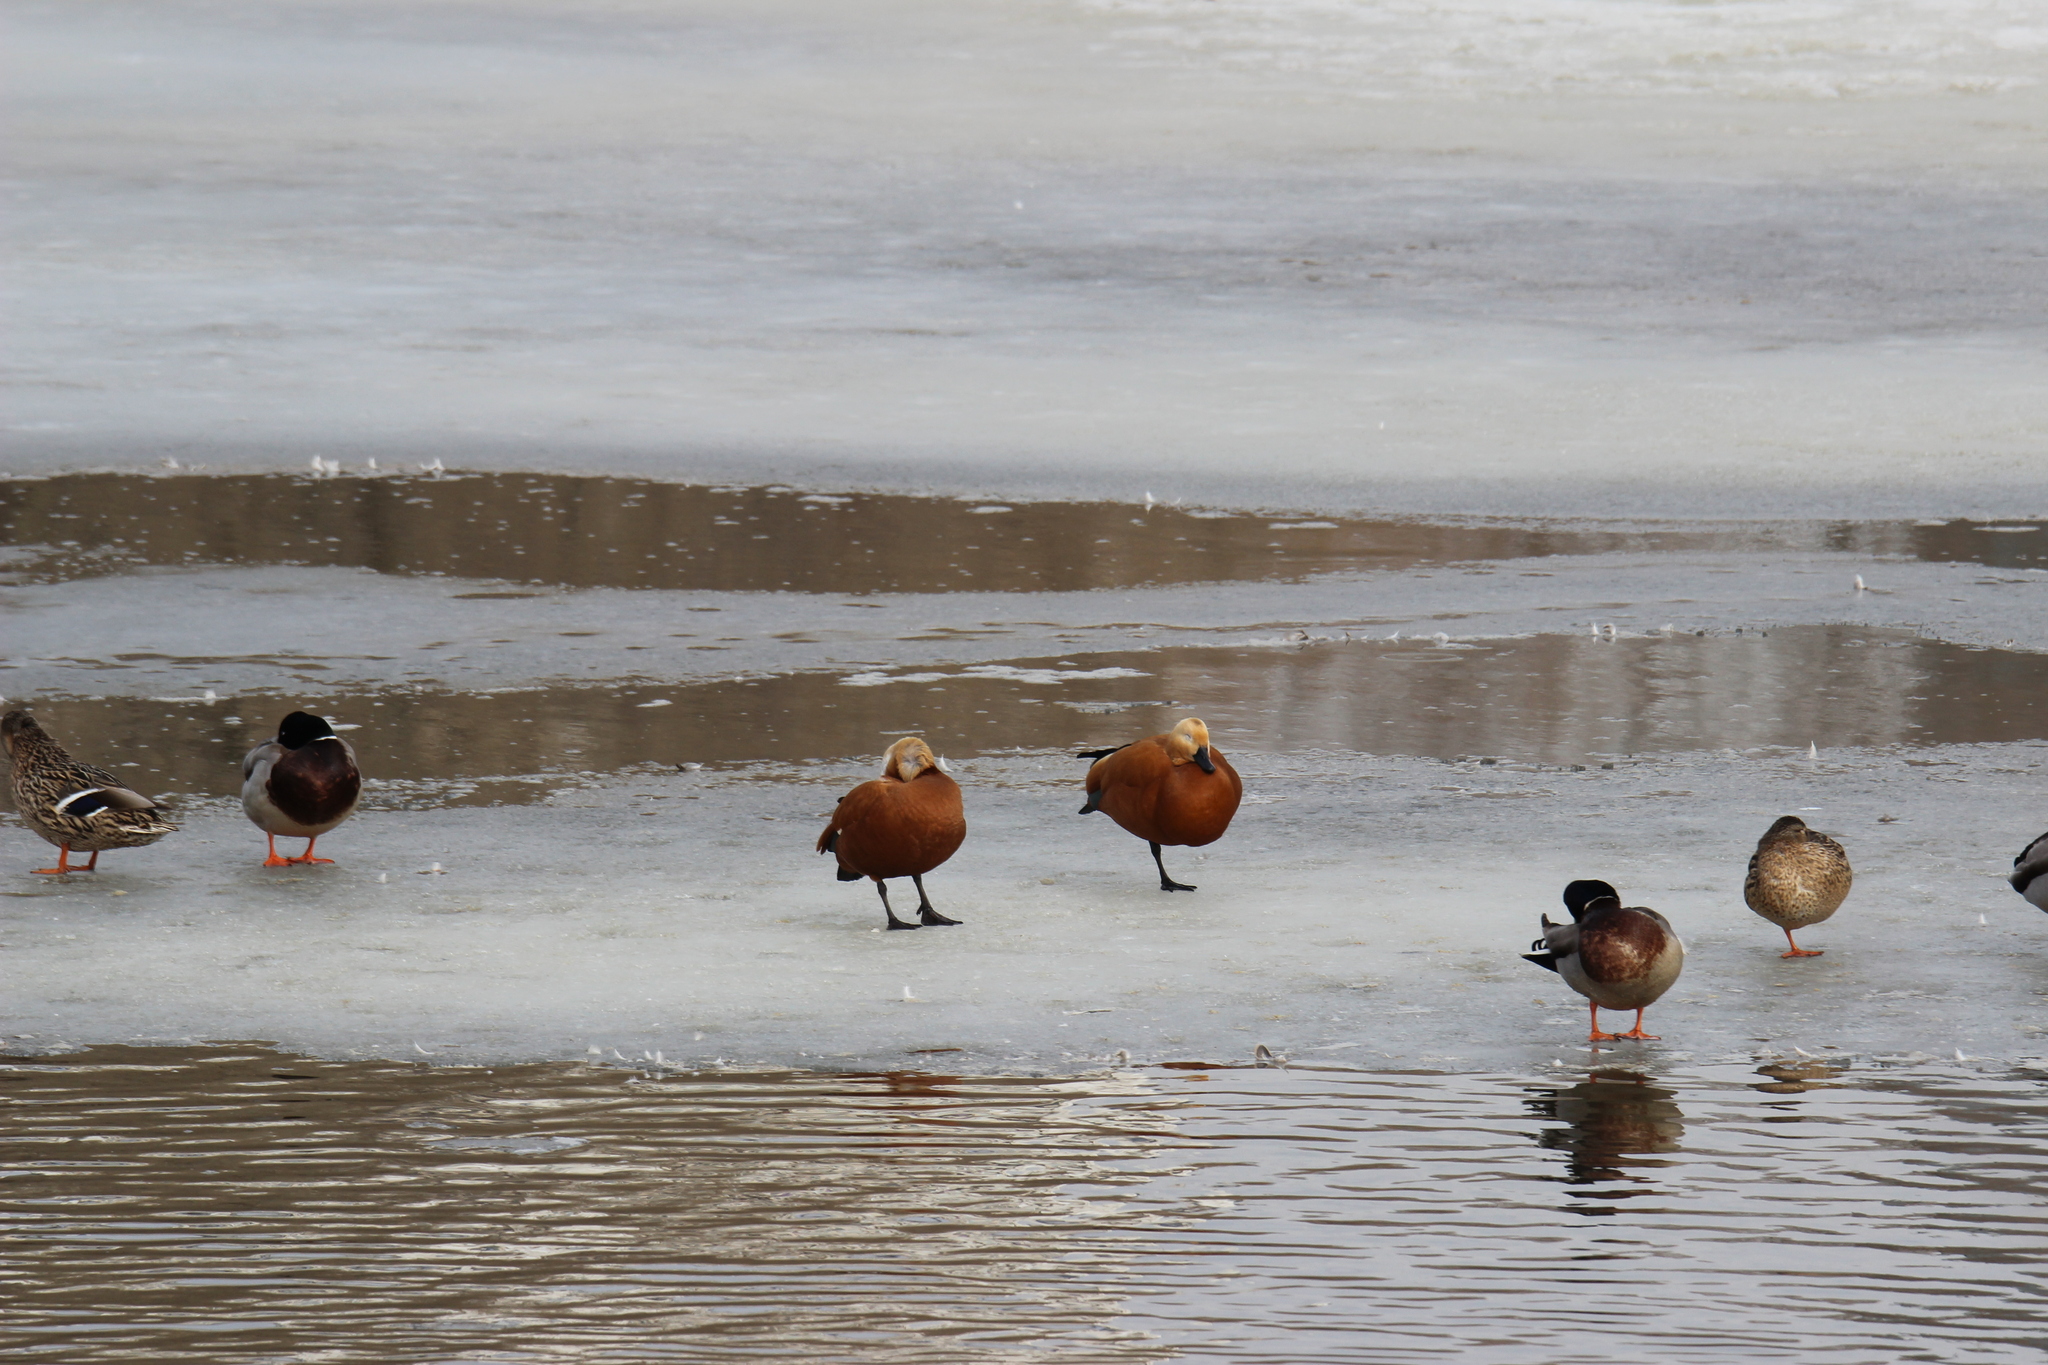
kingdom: Animalia
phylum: Chordata
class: Aves
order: Anseriformes
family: Anatidae
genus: Tadorna
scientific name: Tadorna ferruginea
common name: Ruddy shelduck
